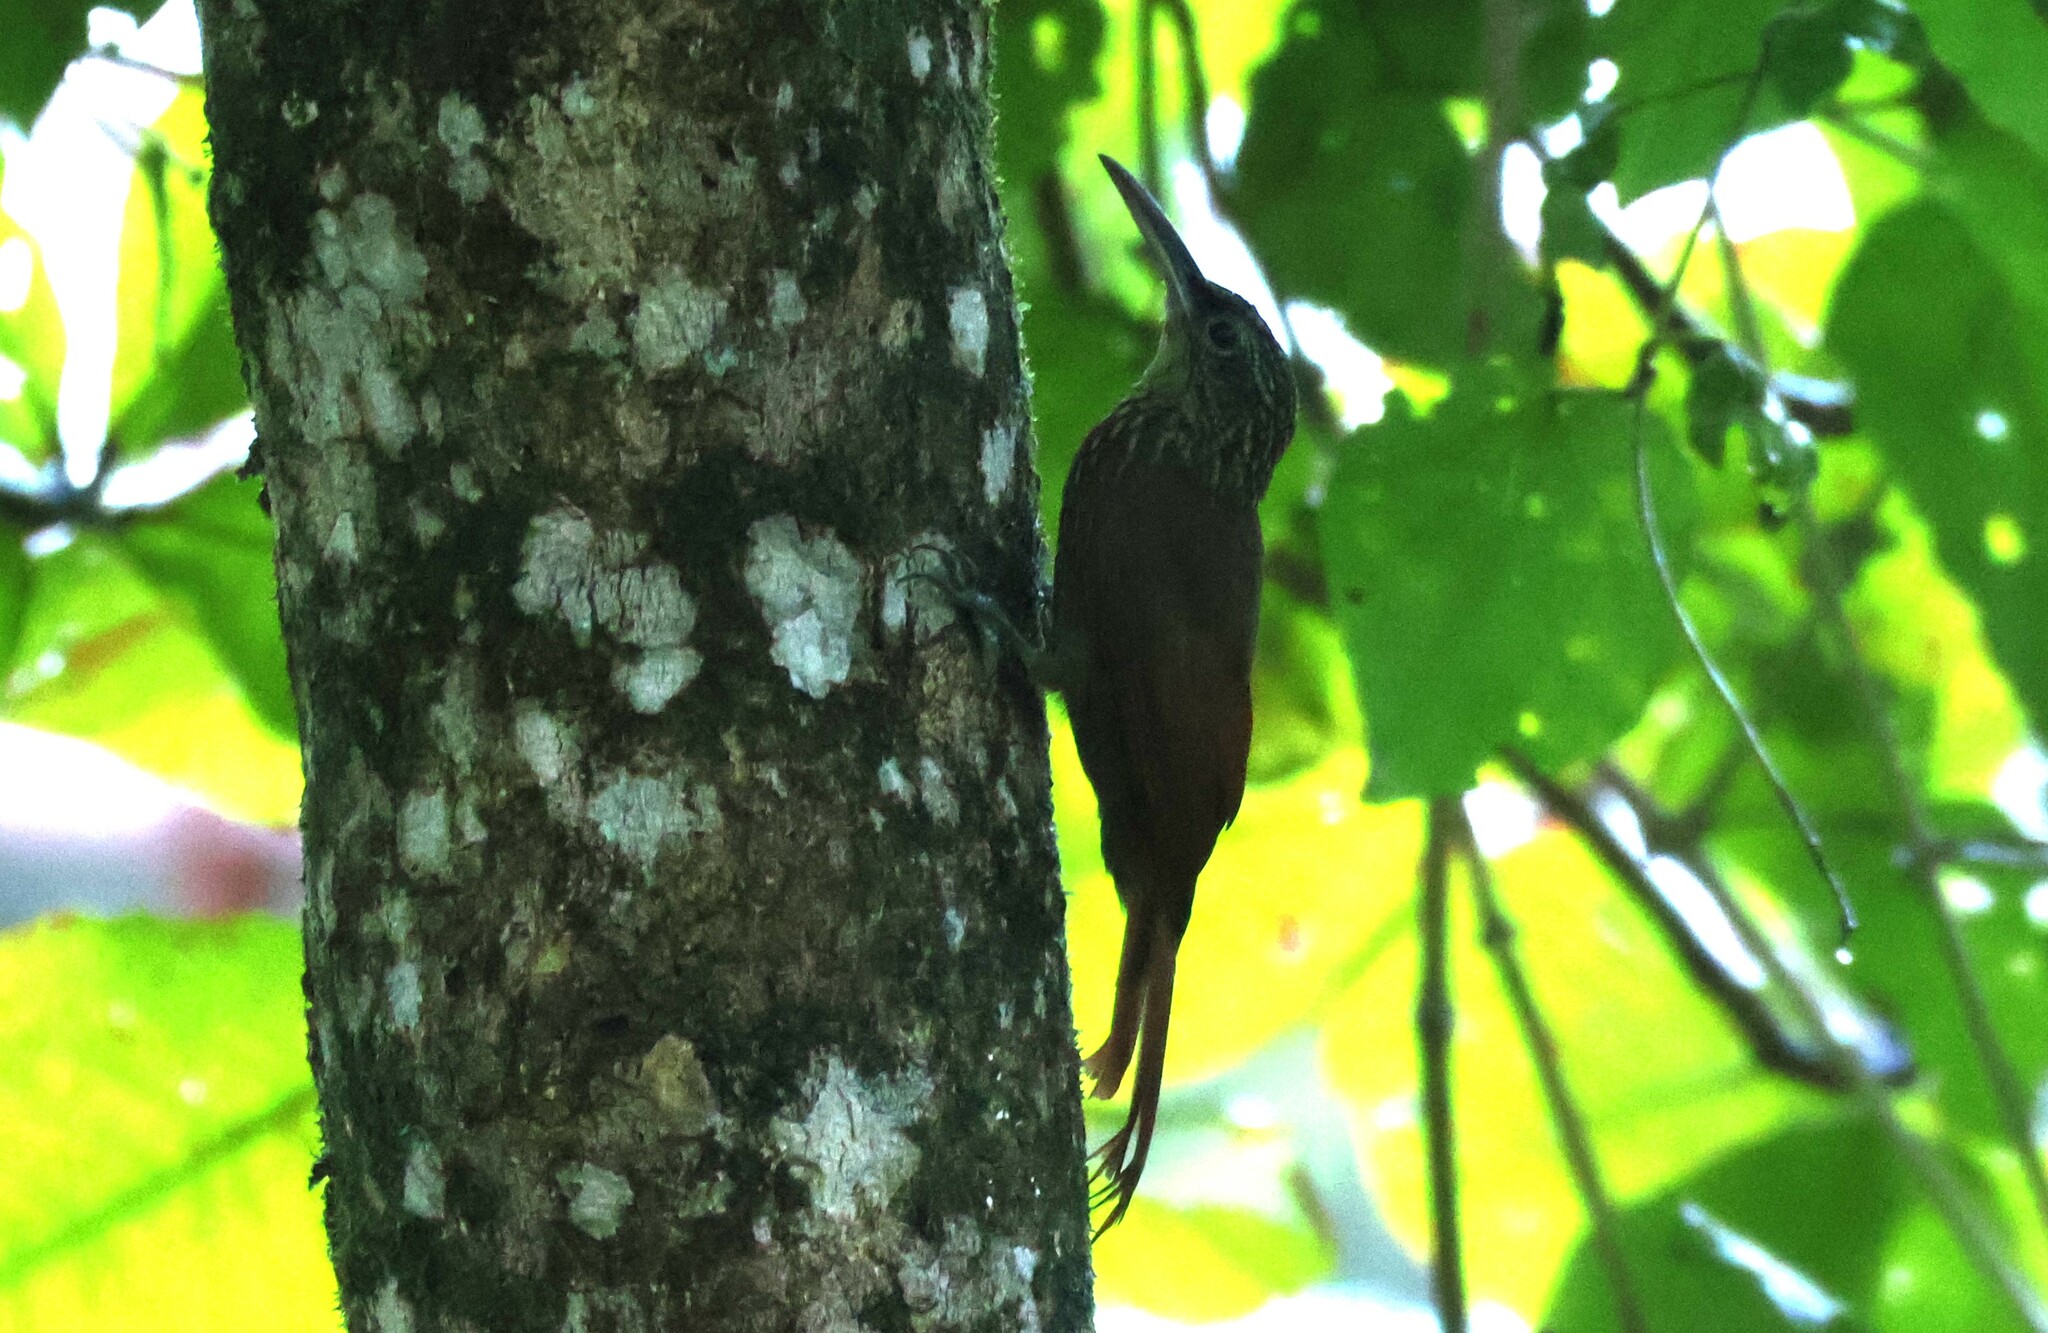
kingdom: Animalia
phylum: Chordata
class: Aves
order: Passeriformes
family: Furnariidae
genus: Xiphorhynchus
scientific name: Xiphorhynchus susurrans
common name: Cocoa woodcreeper
